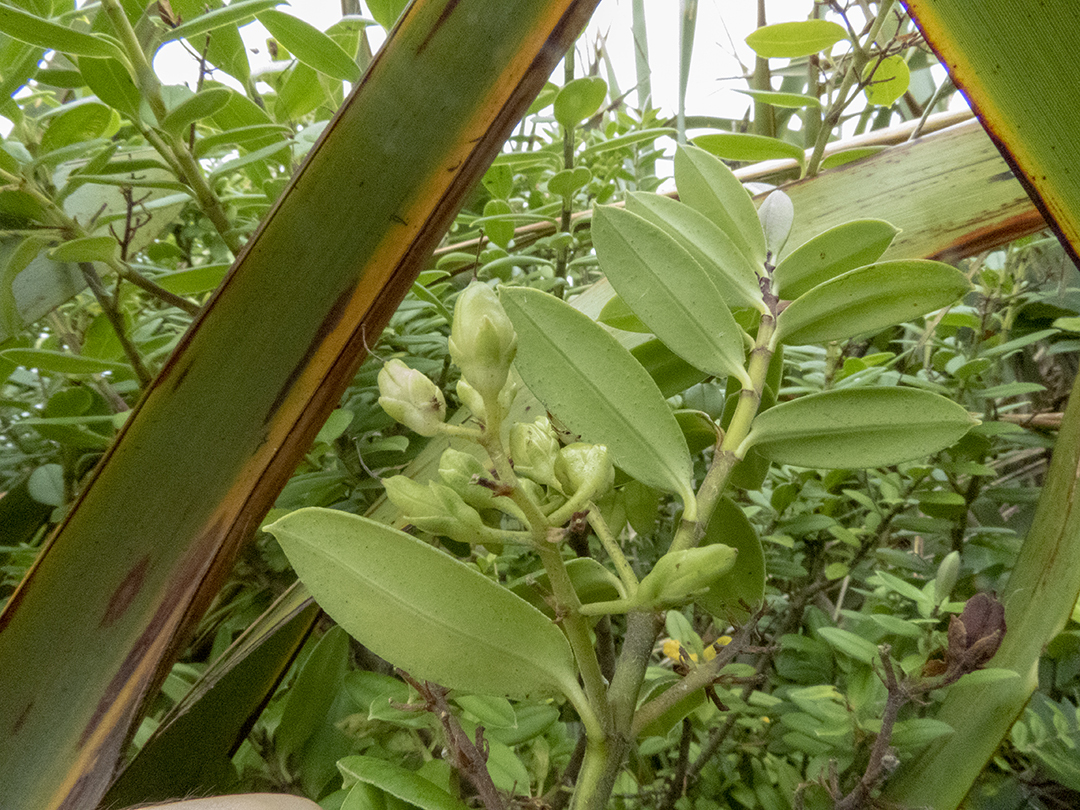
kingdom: Plantae
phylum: Tracheophyta
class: Magnoliopsida
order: Lamiales
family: Plantaginaceae
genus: Veronica
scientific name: Veronica elliptica
